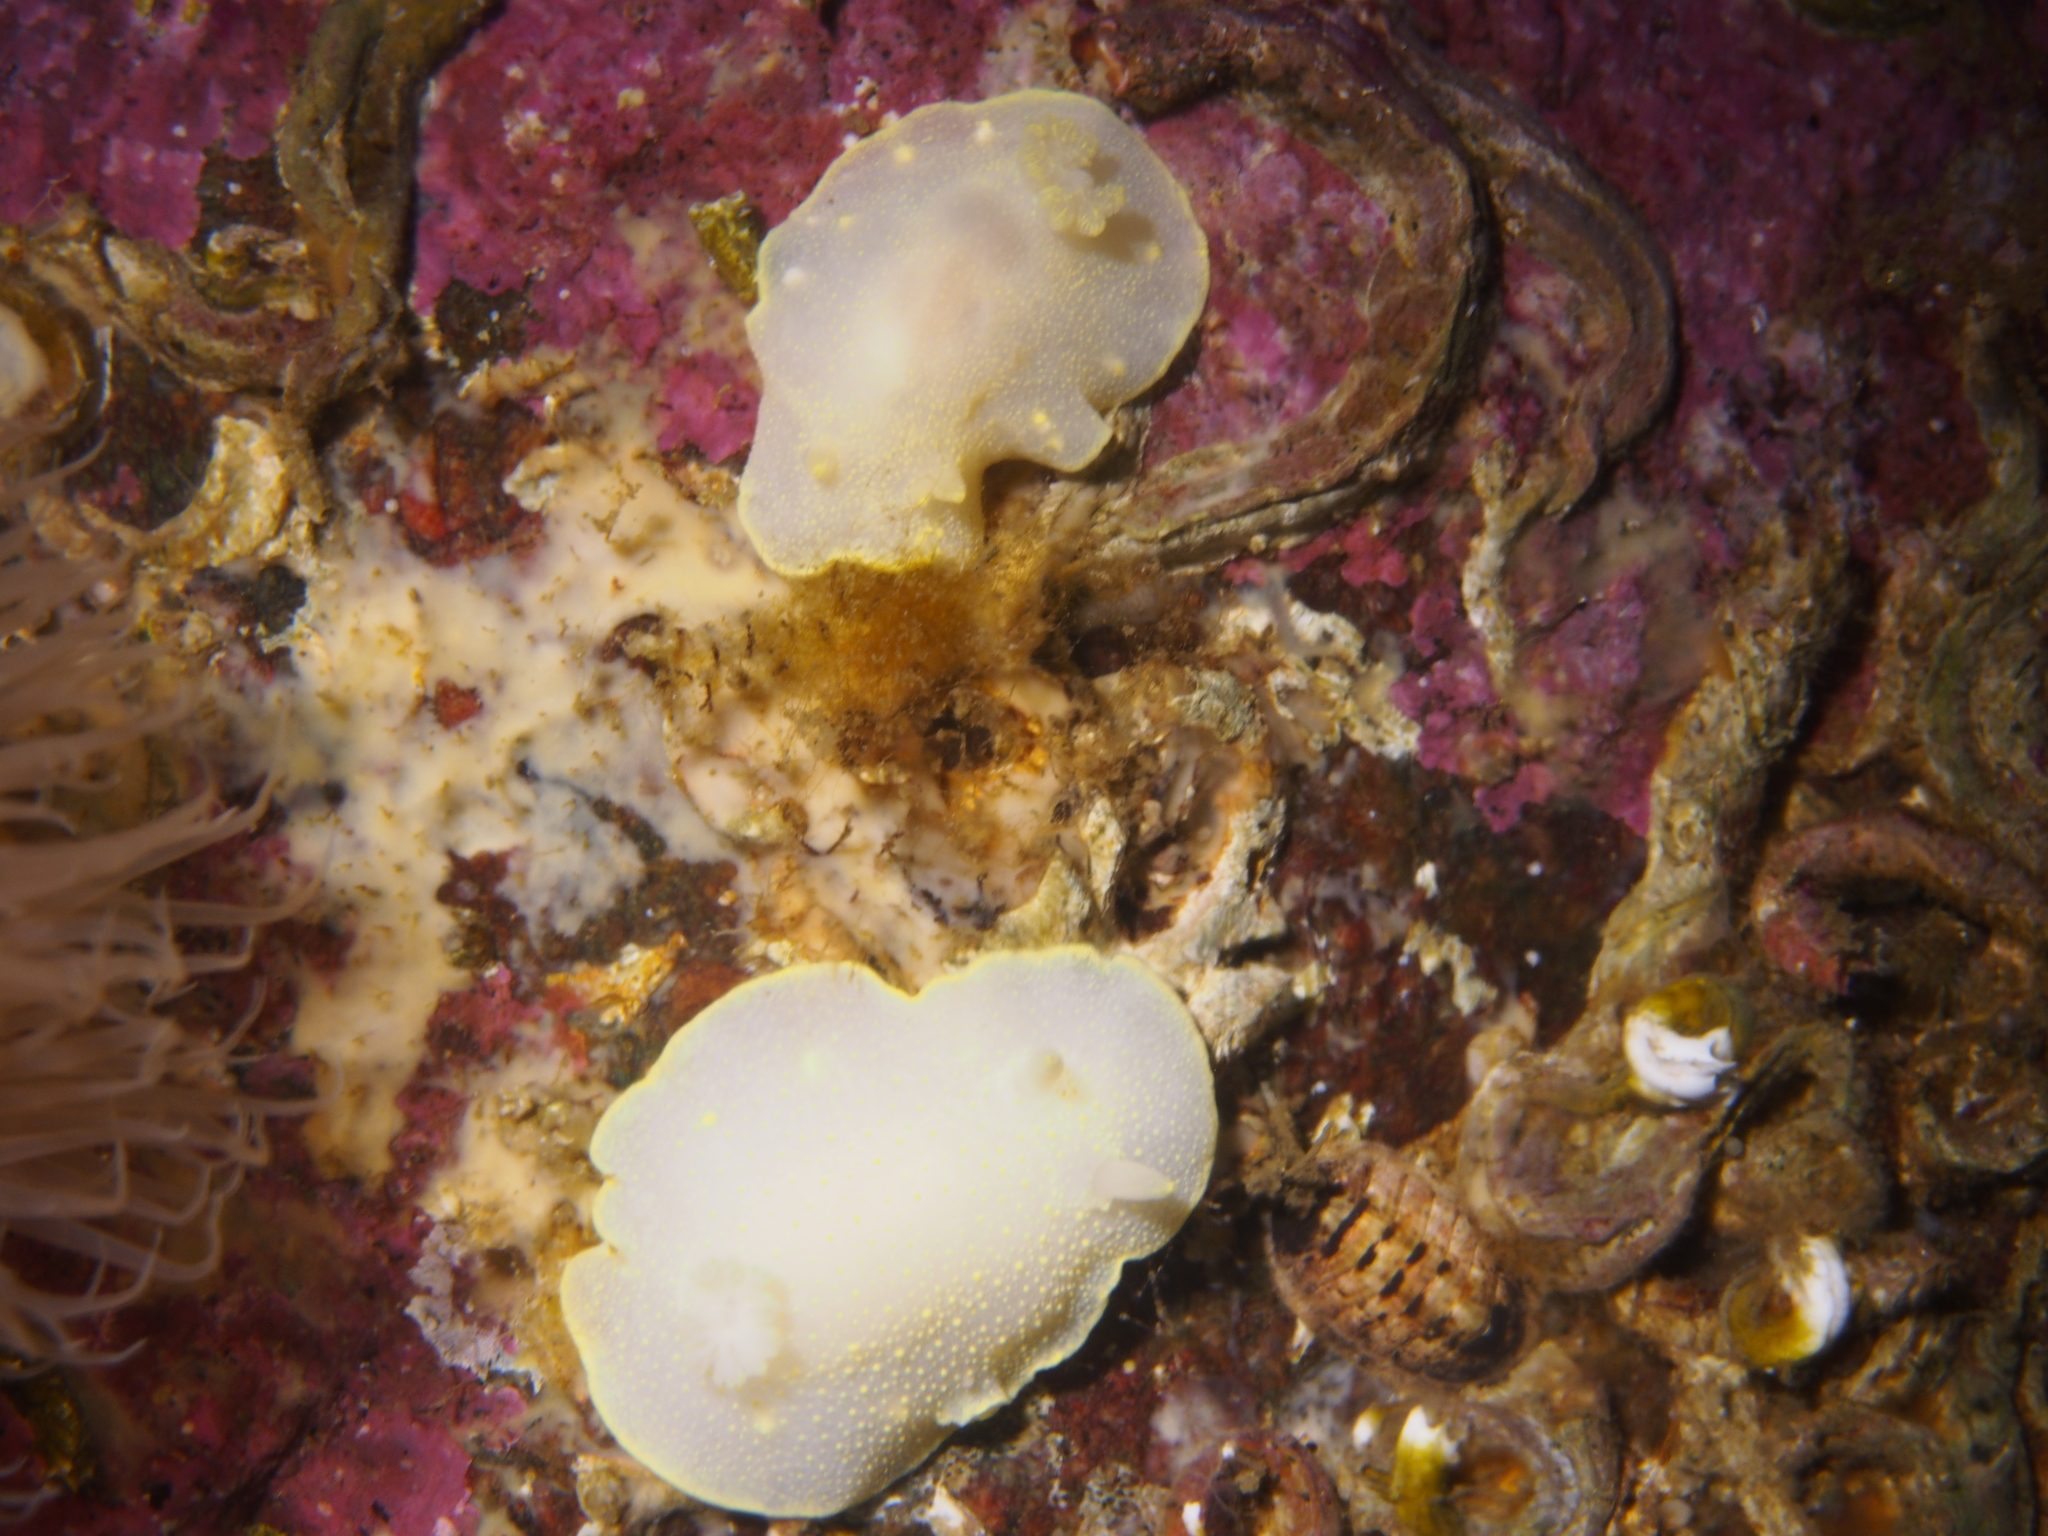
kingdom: Animalia
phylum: Mollusca
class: Gastropoda
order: Nudibranchia
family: Cadlinidae
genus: Cadlina
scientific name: Cadlina laevis
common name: White atlantic cadlina
